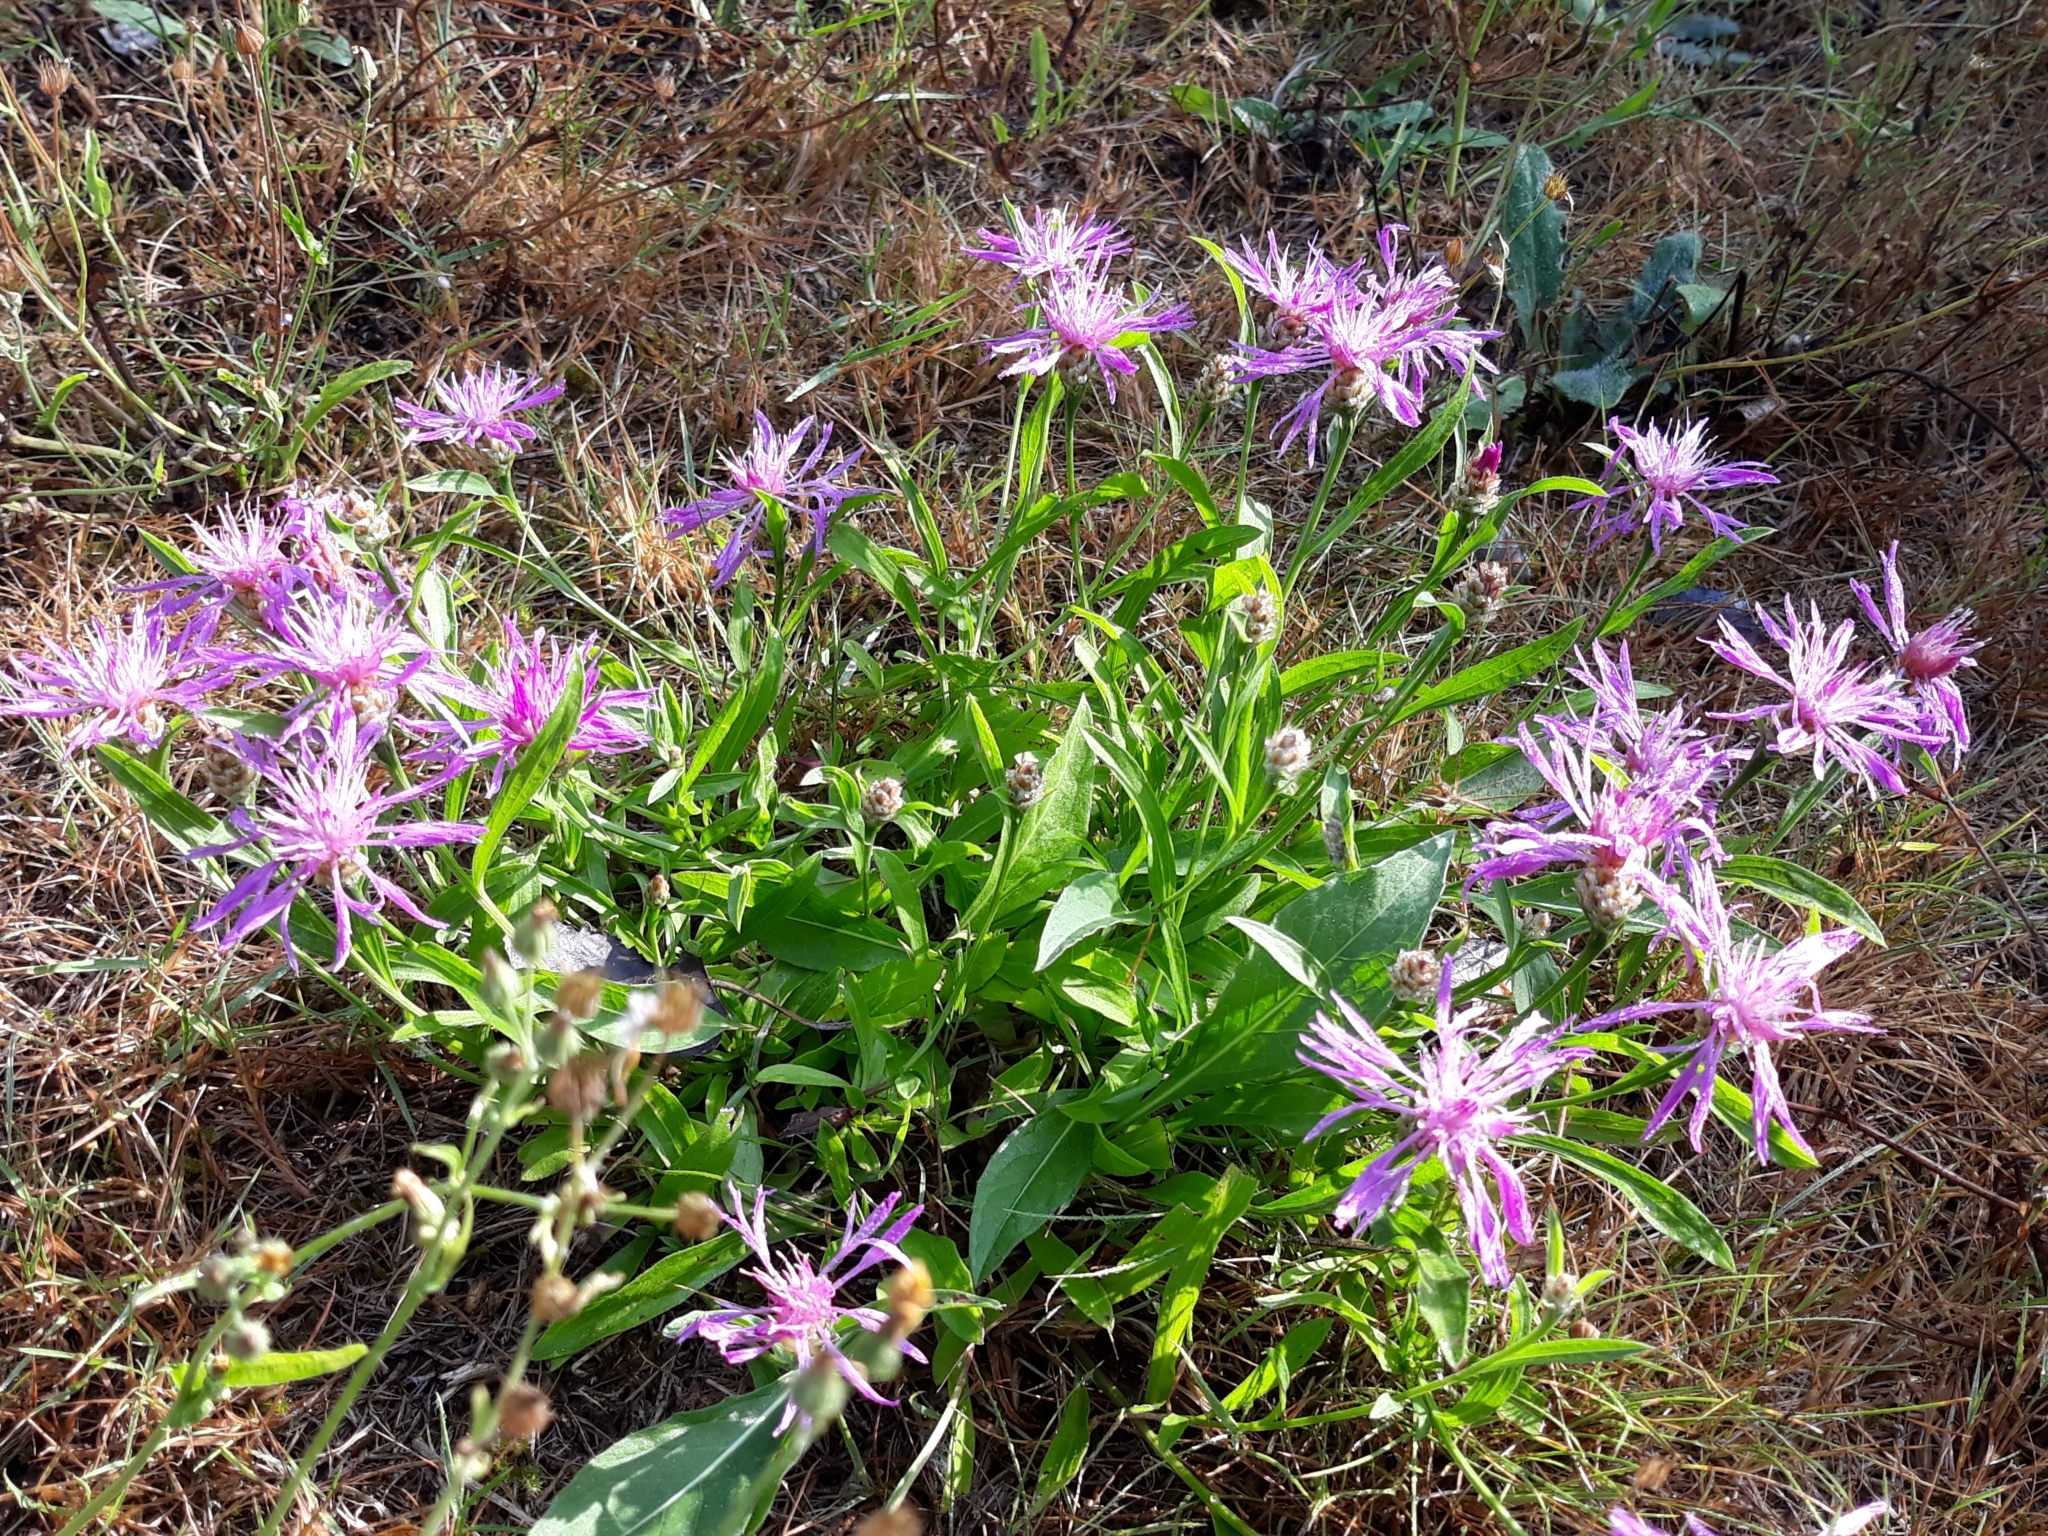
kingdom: Plantae
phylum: Tracheophyta
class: Magnoliopsida
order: Asterales
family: Asteraceae
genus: Centaurea
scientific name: Centaurea jacea
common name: Brown knapweed
